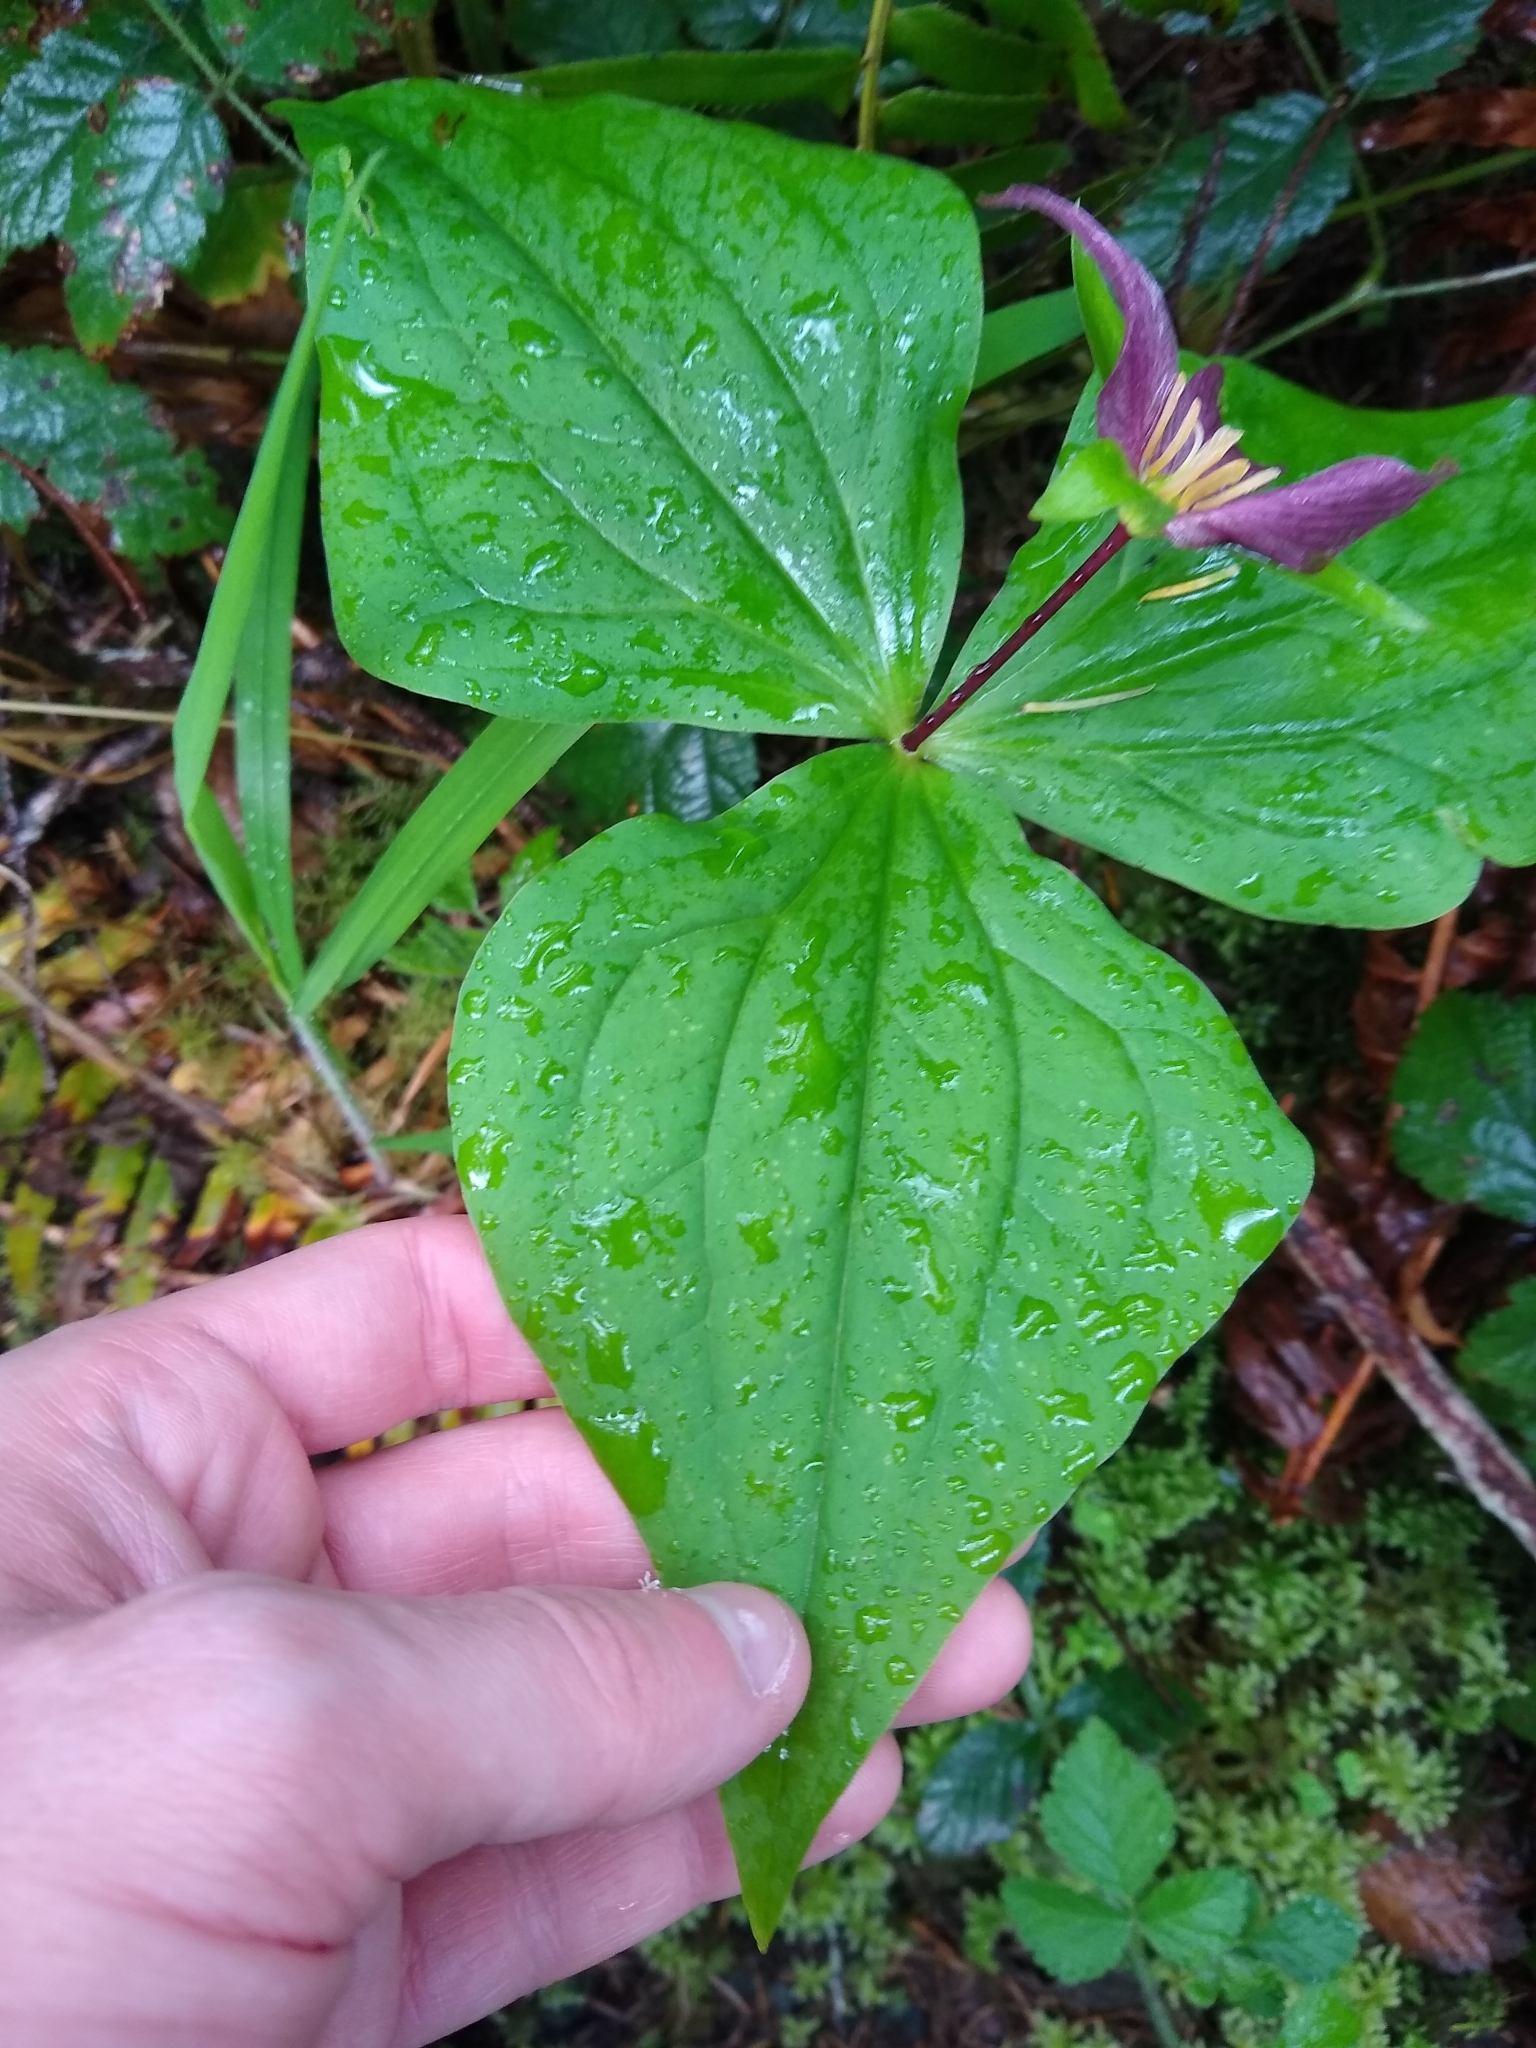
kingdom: Plantae
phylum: Tracheophyta
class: Liliopsida
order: Liliales
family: Melanthiaceae
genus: Trillium
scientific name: Trillium ovatum
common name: Pacific trillium
